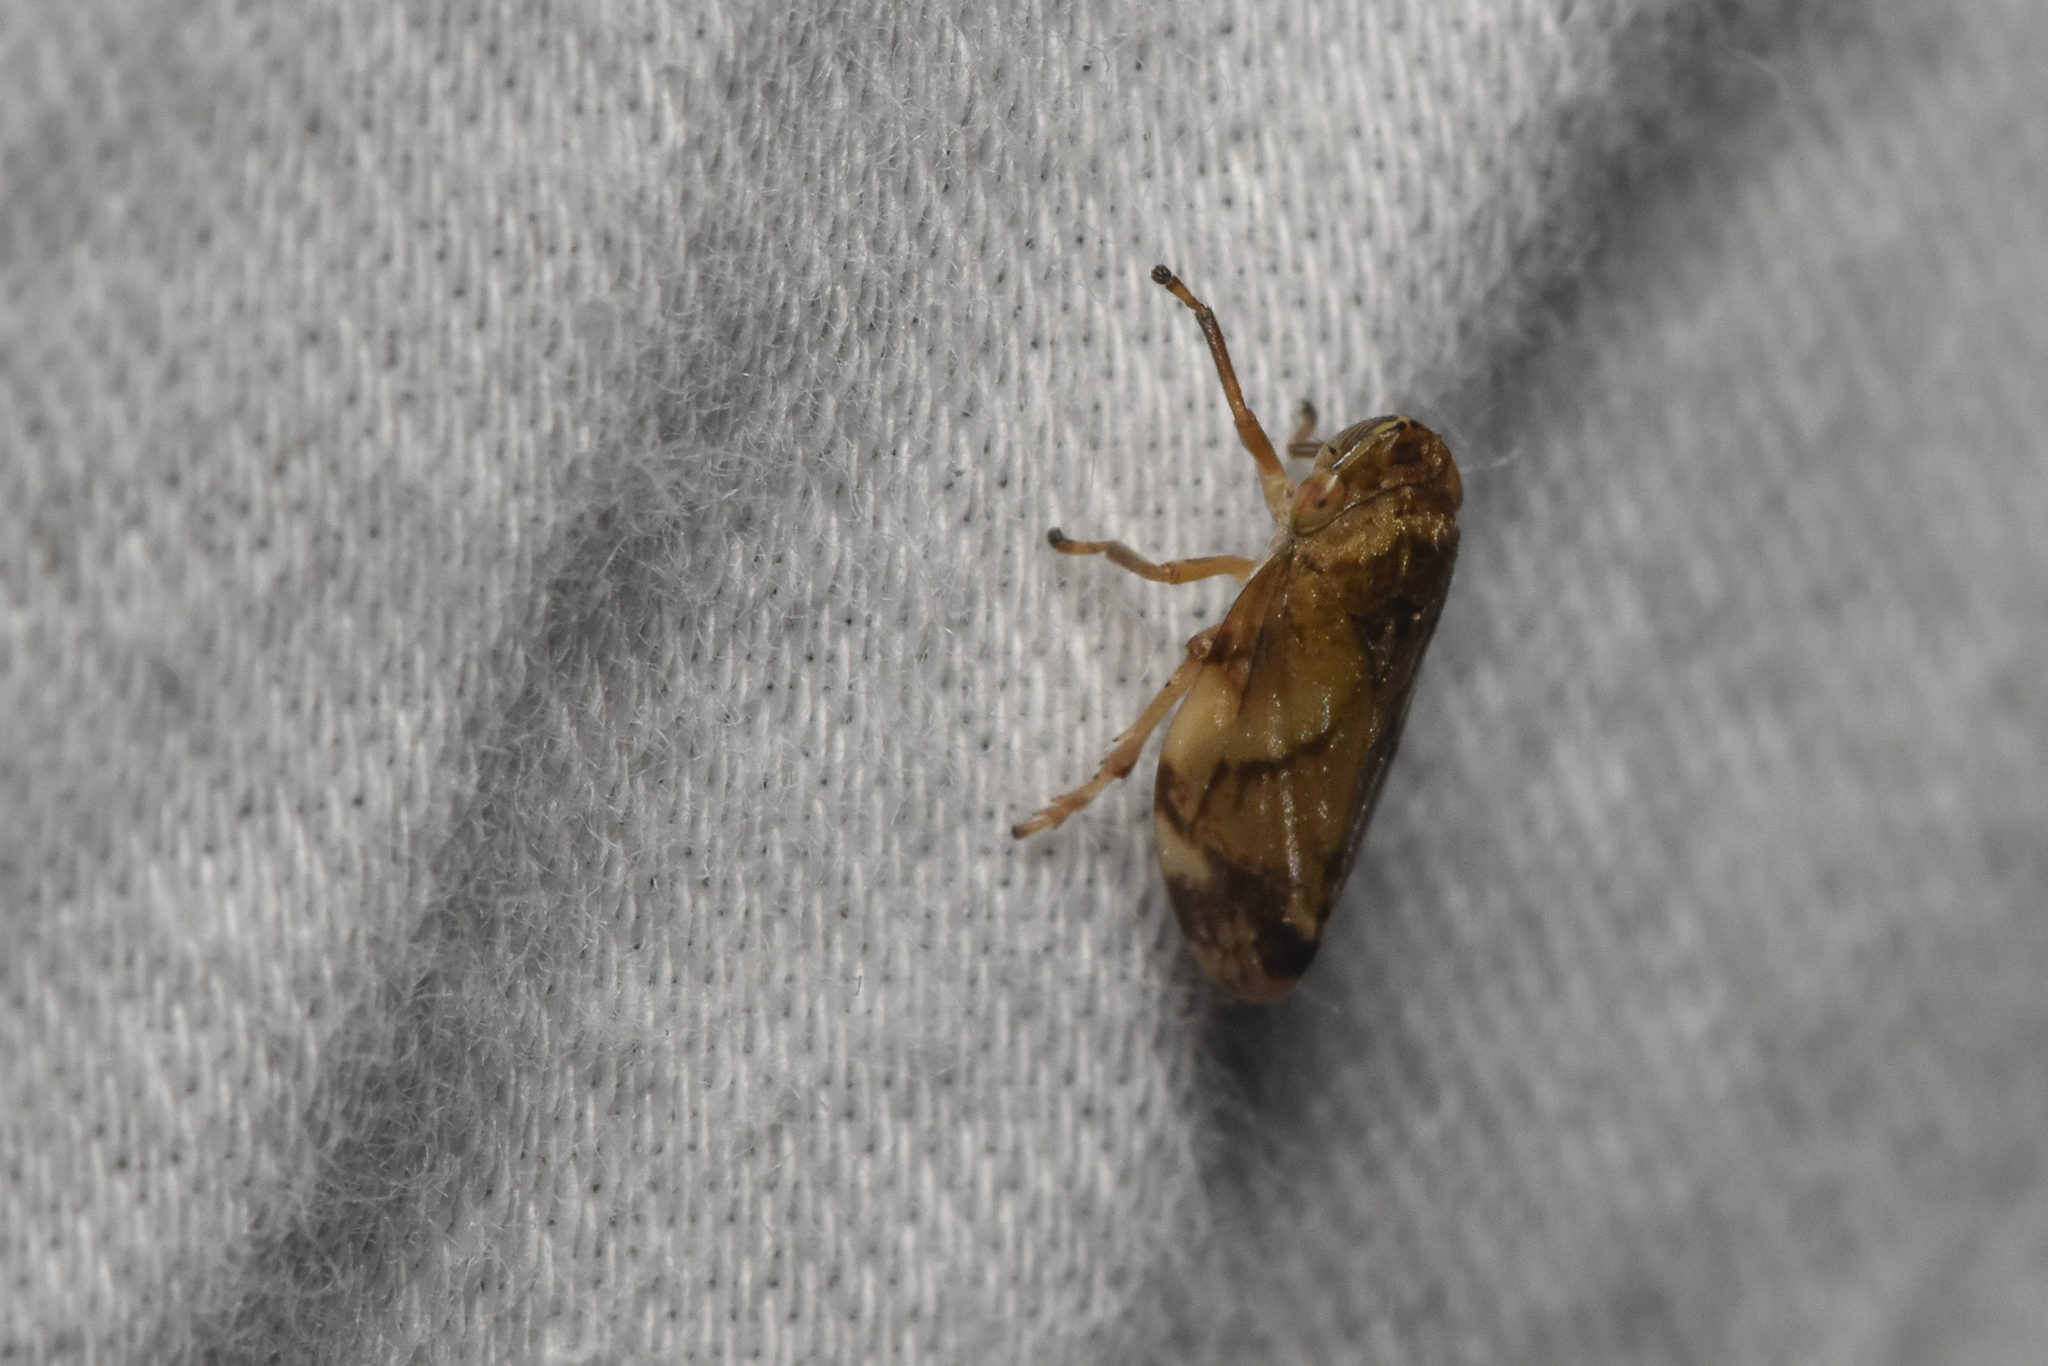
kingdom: Animalia
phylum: Arthropoda
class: Insecta
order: Hemiptera
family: Aphrophoridae
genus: Philaenus
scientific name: Philaenus spumarius
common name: Meadow spittlebug
